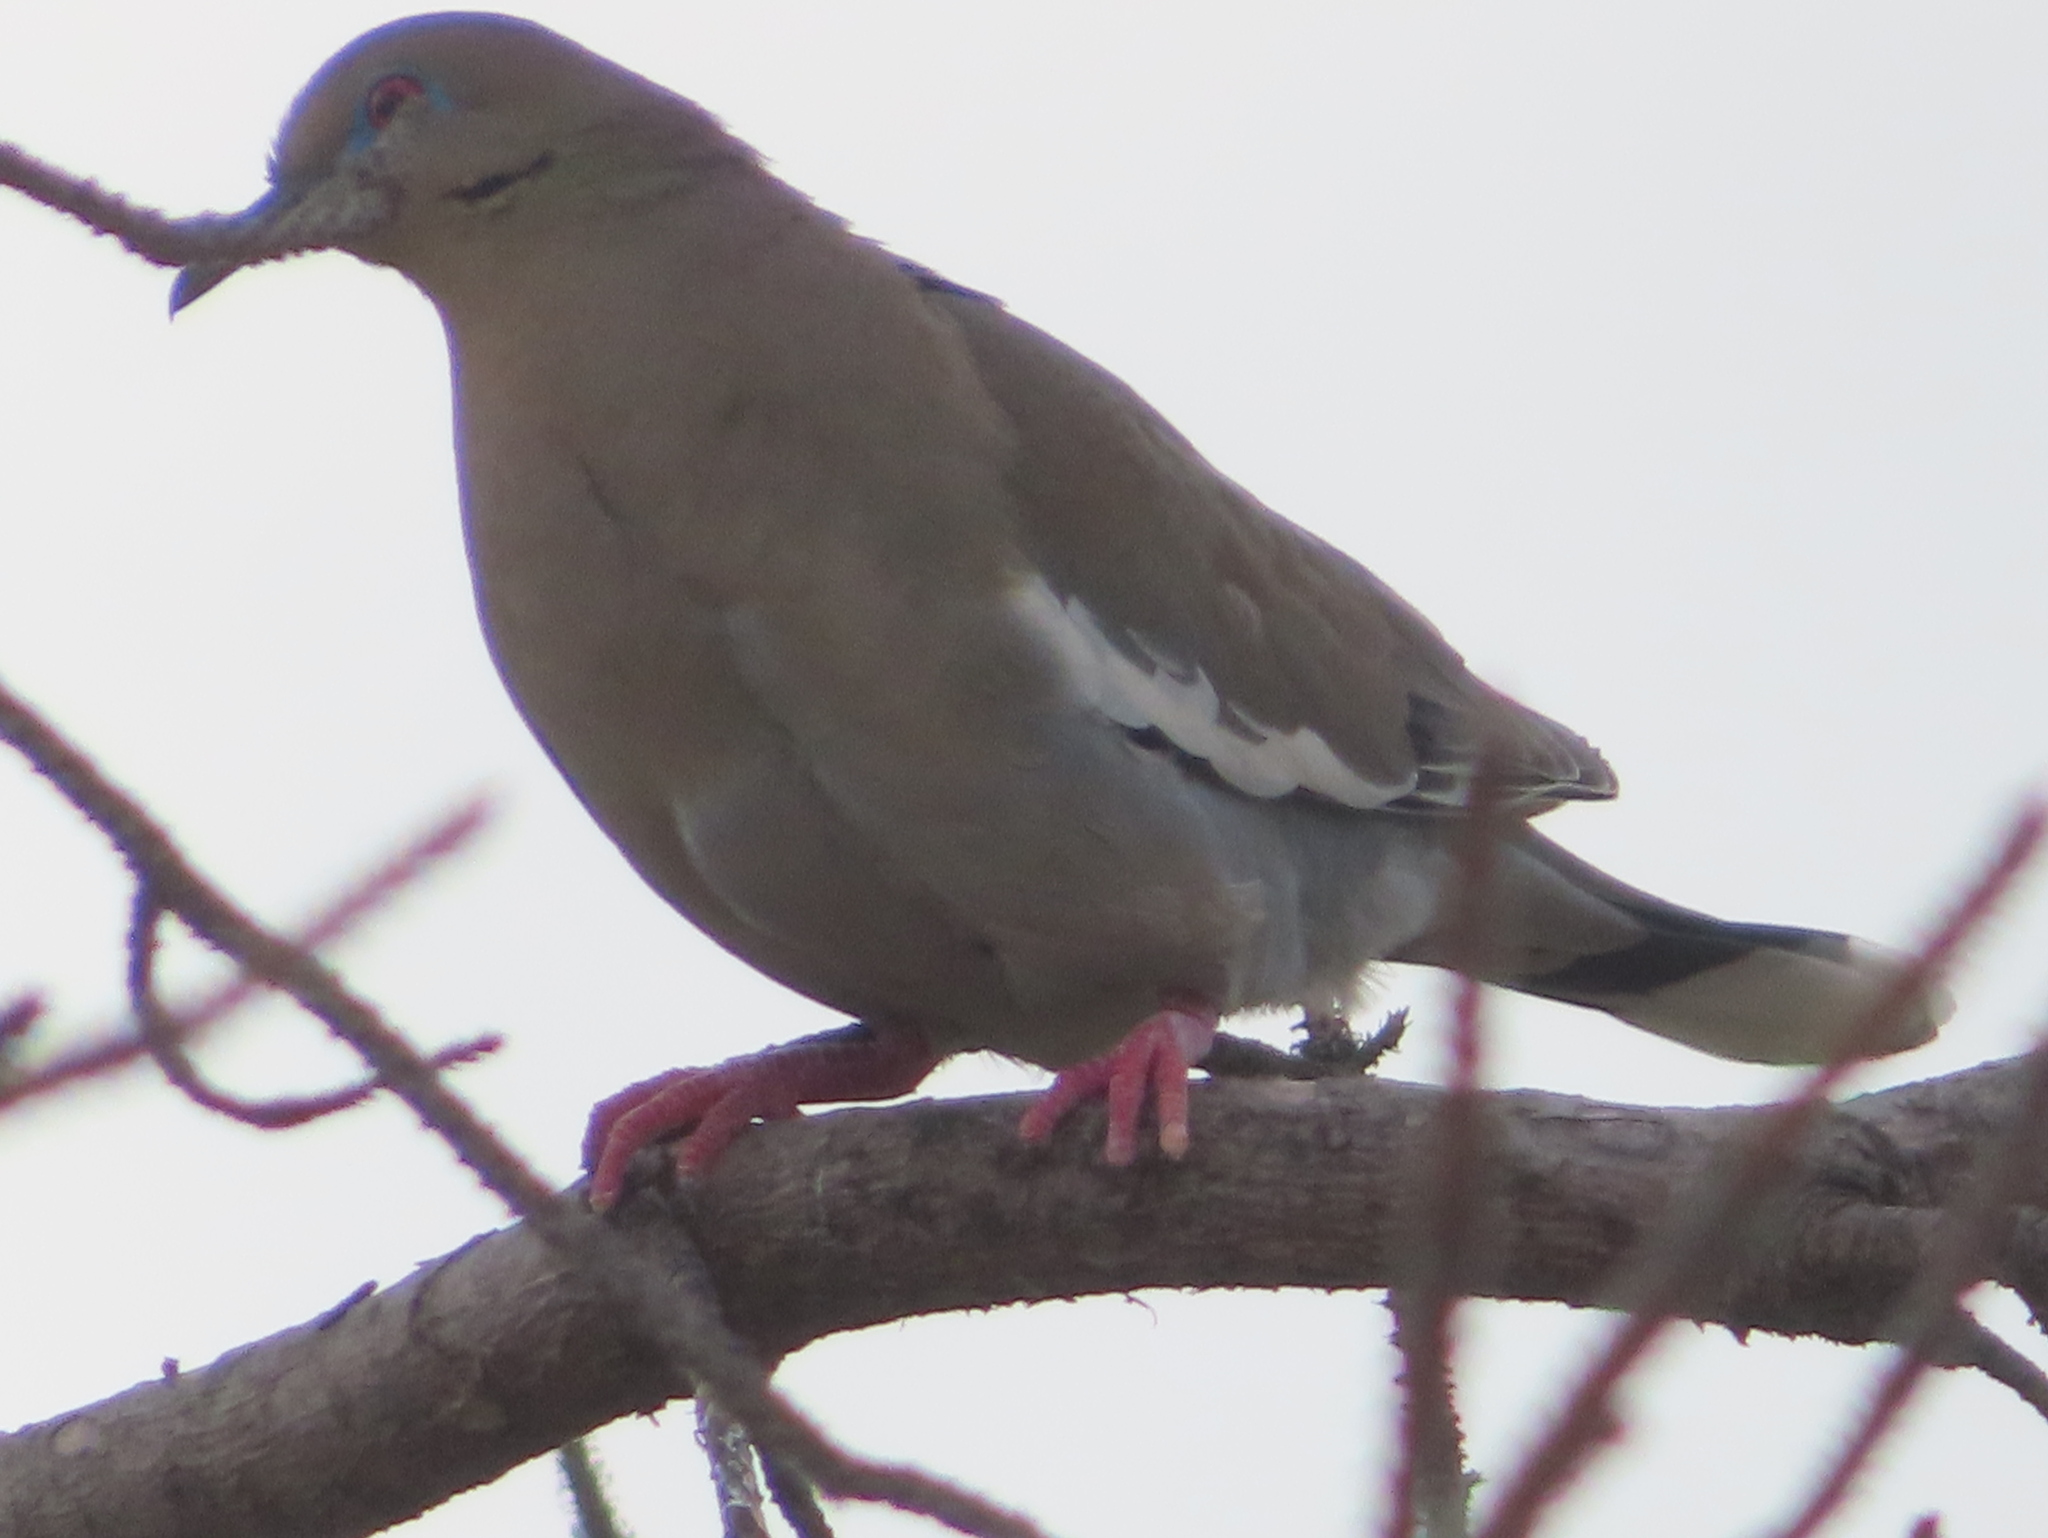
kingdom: Animalia
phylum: Chordata
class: Aves
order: Columbiformes
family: Columbidae
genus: Zenaida
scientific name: Zenaida asiatica
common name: White-winged dove
